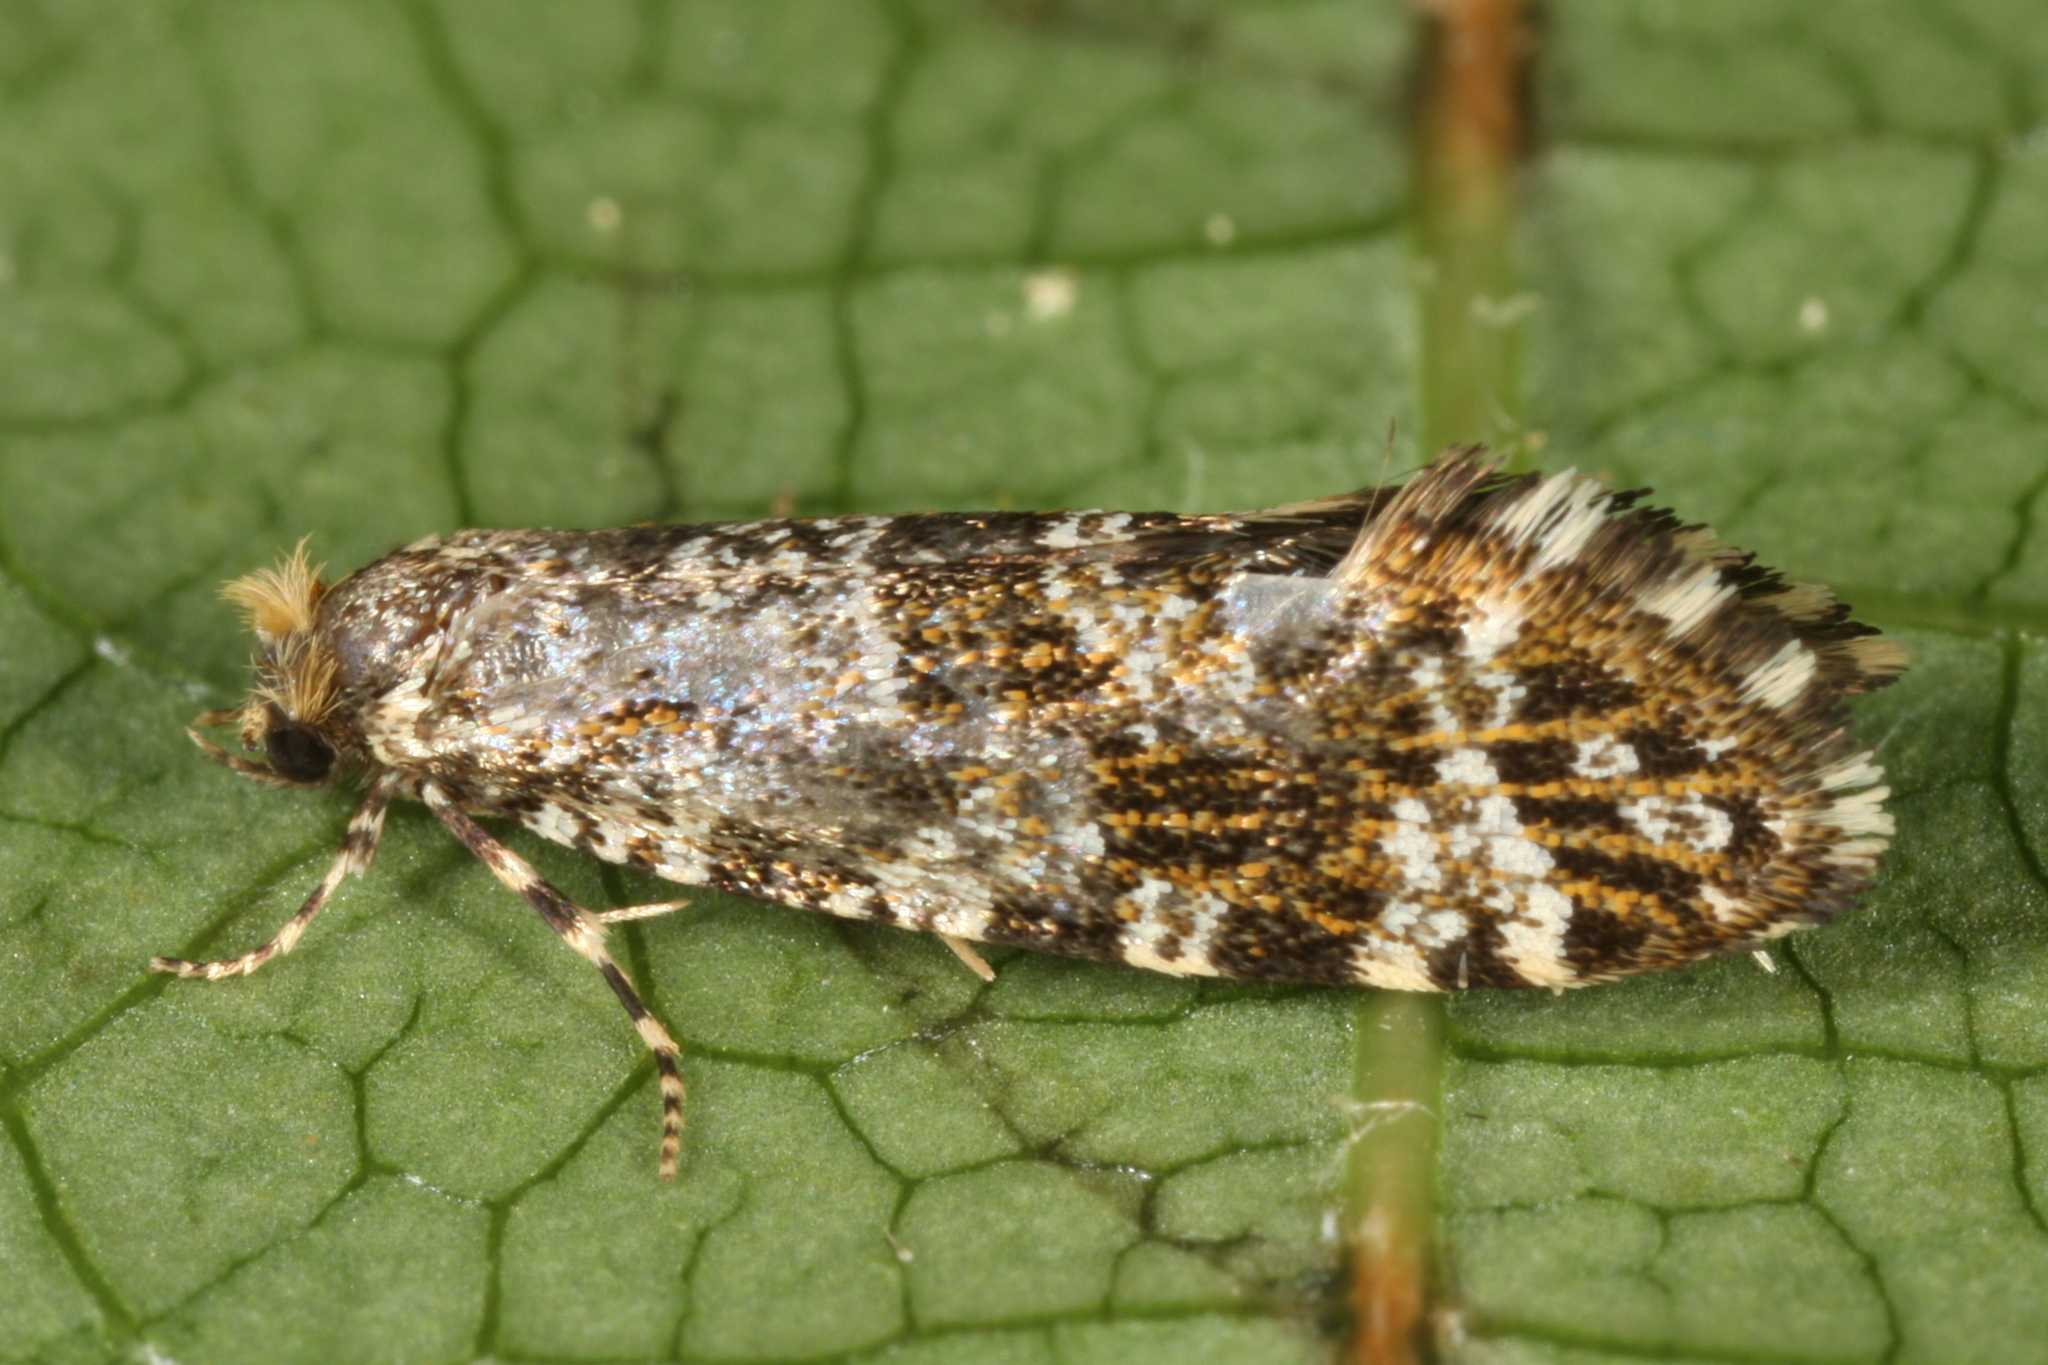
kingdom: Animalia
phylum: Arthropoda
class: Insecta
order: Lepidoptera
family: Tineidae
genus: Triaxomera
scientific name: Triaxomera parasitella
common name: Large brindled clothes
